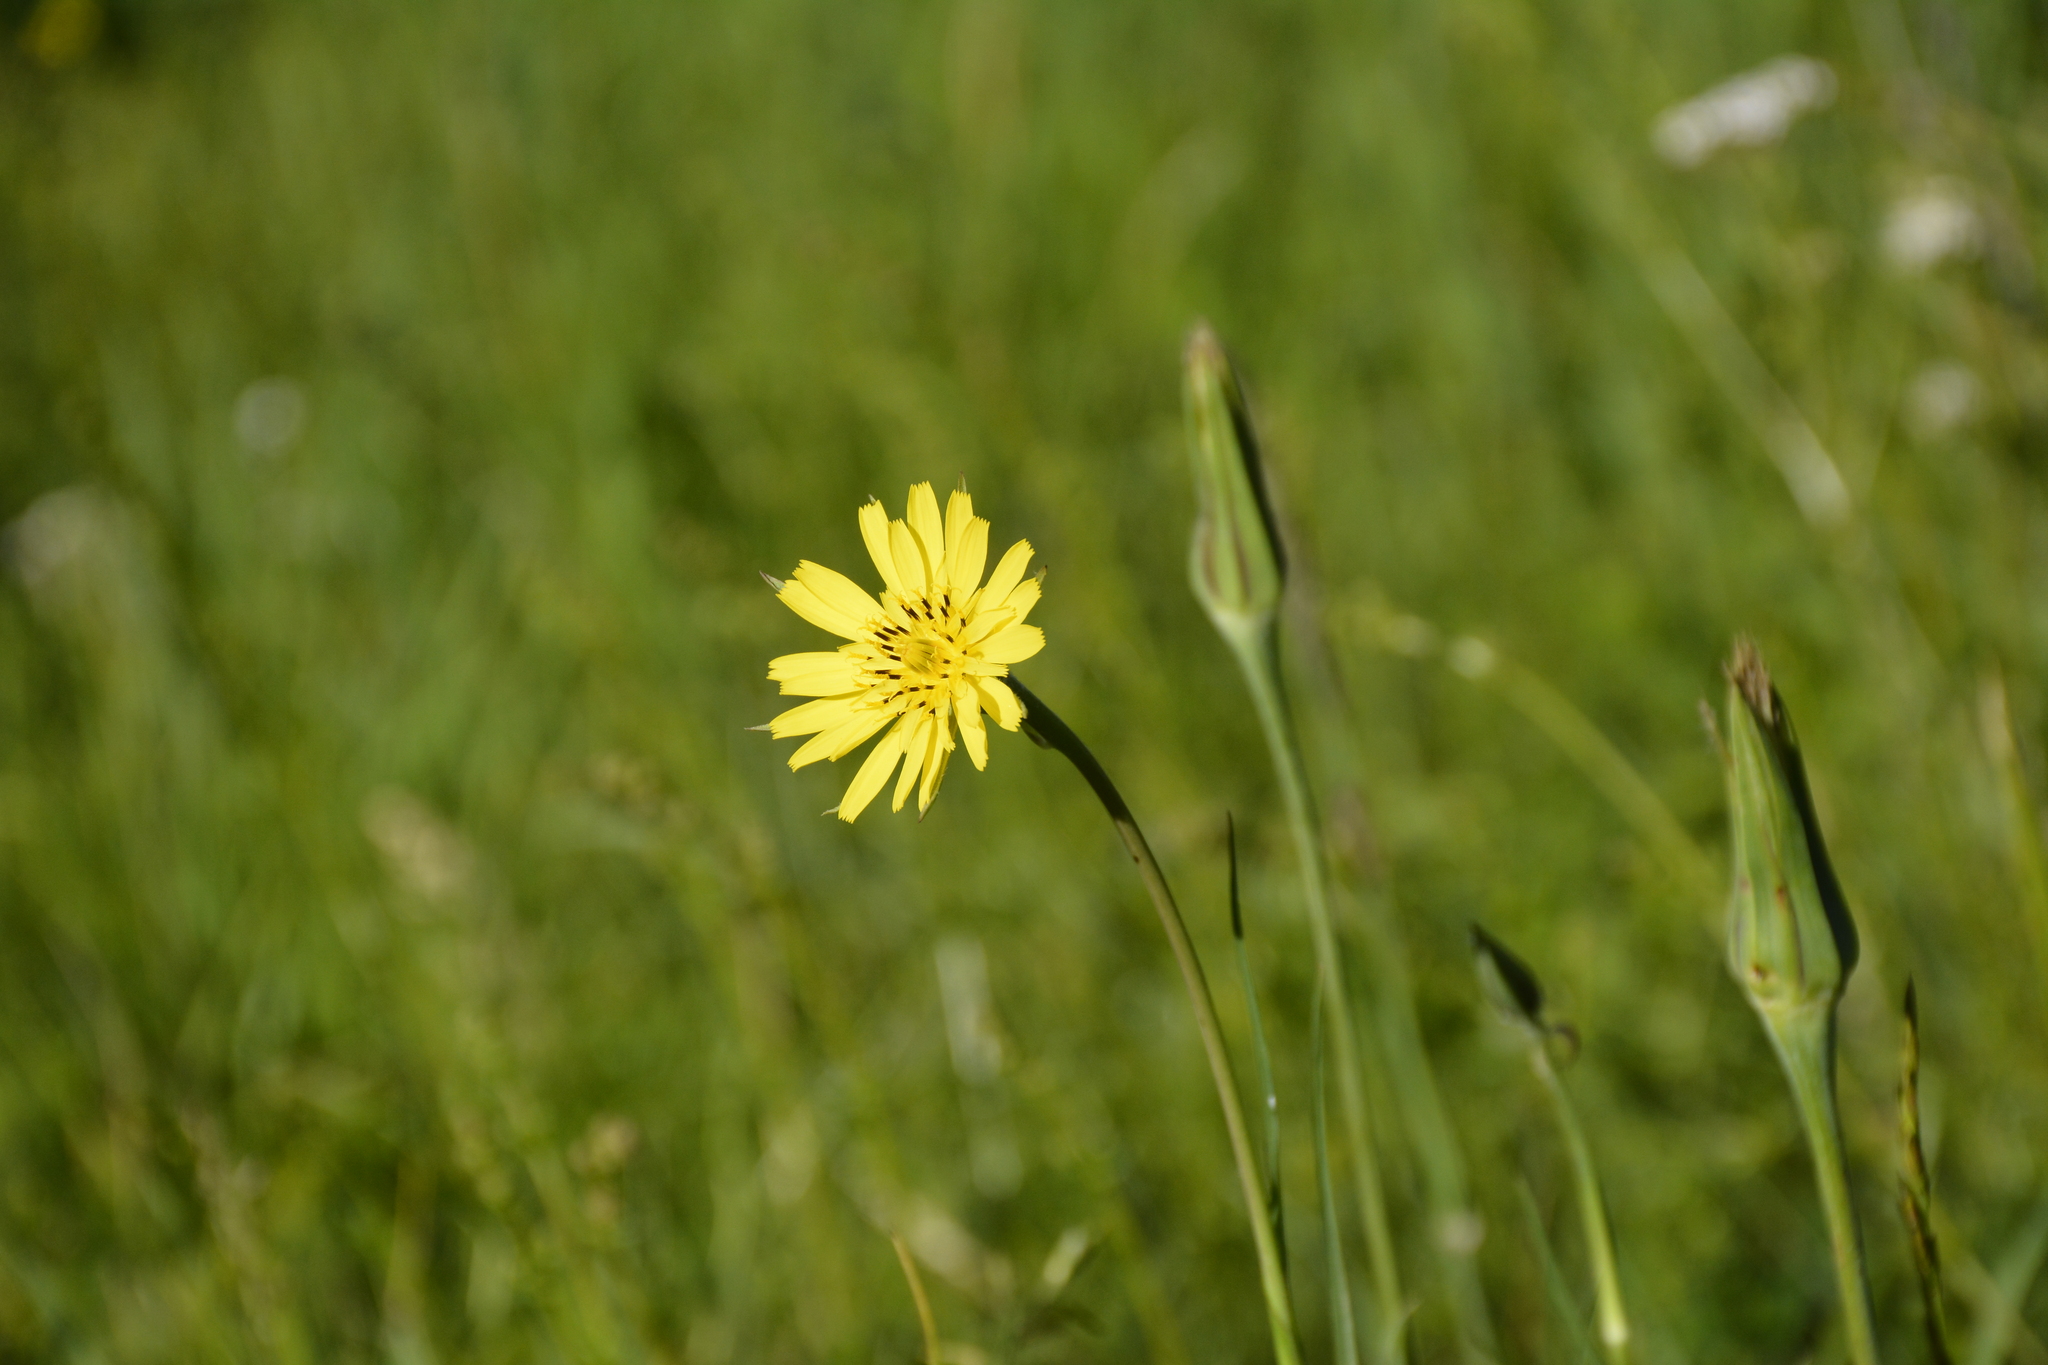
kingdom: Plantae
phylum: Tracheophyta
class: Magnoliopsida
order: Asterales
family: Asteraceae
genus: Tragopogon
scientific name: Tragopogon pratensis
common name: Goat's-beard
